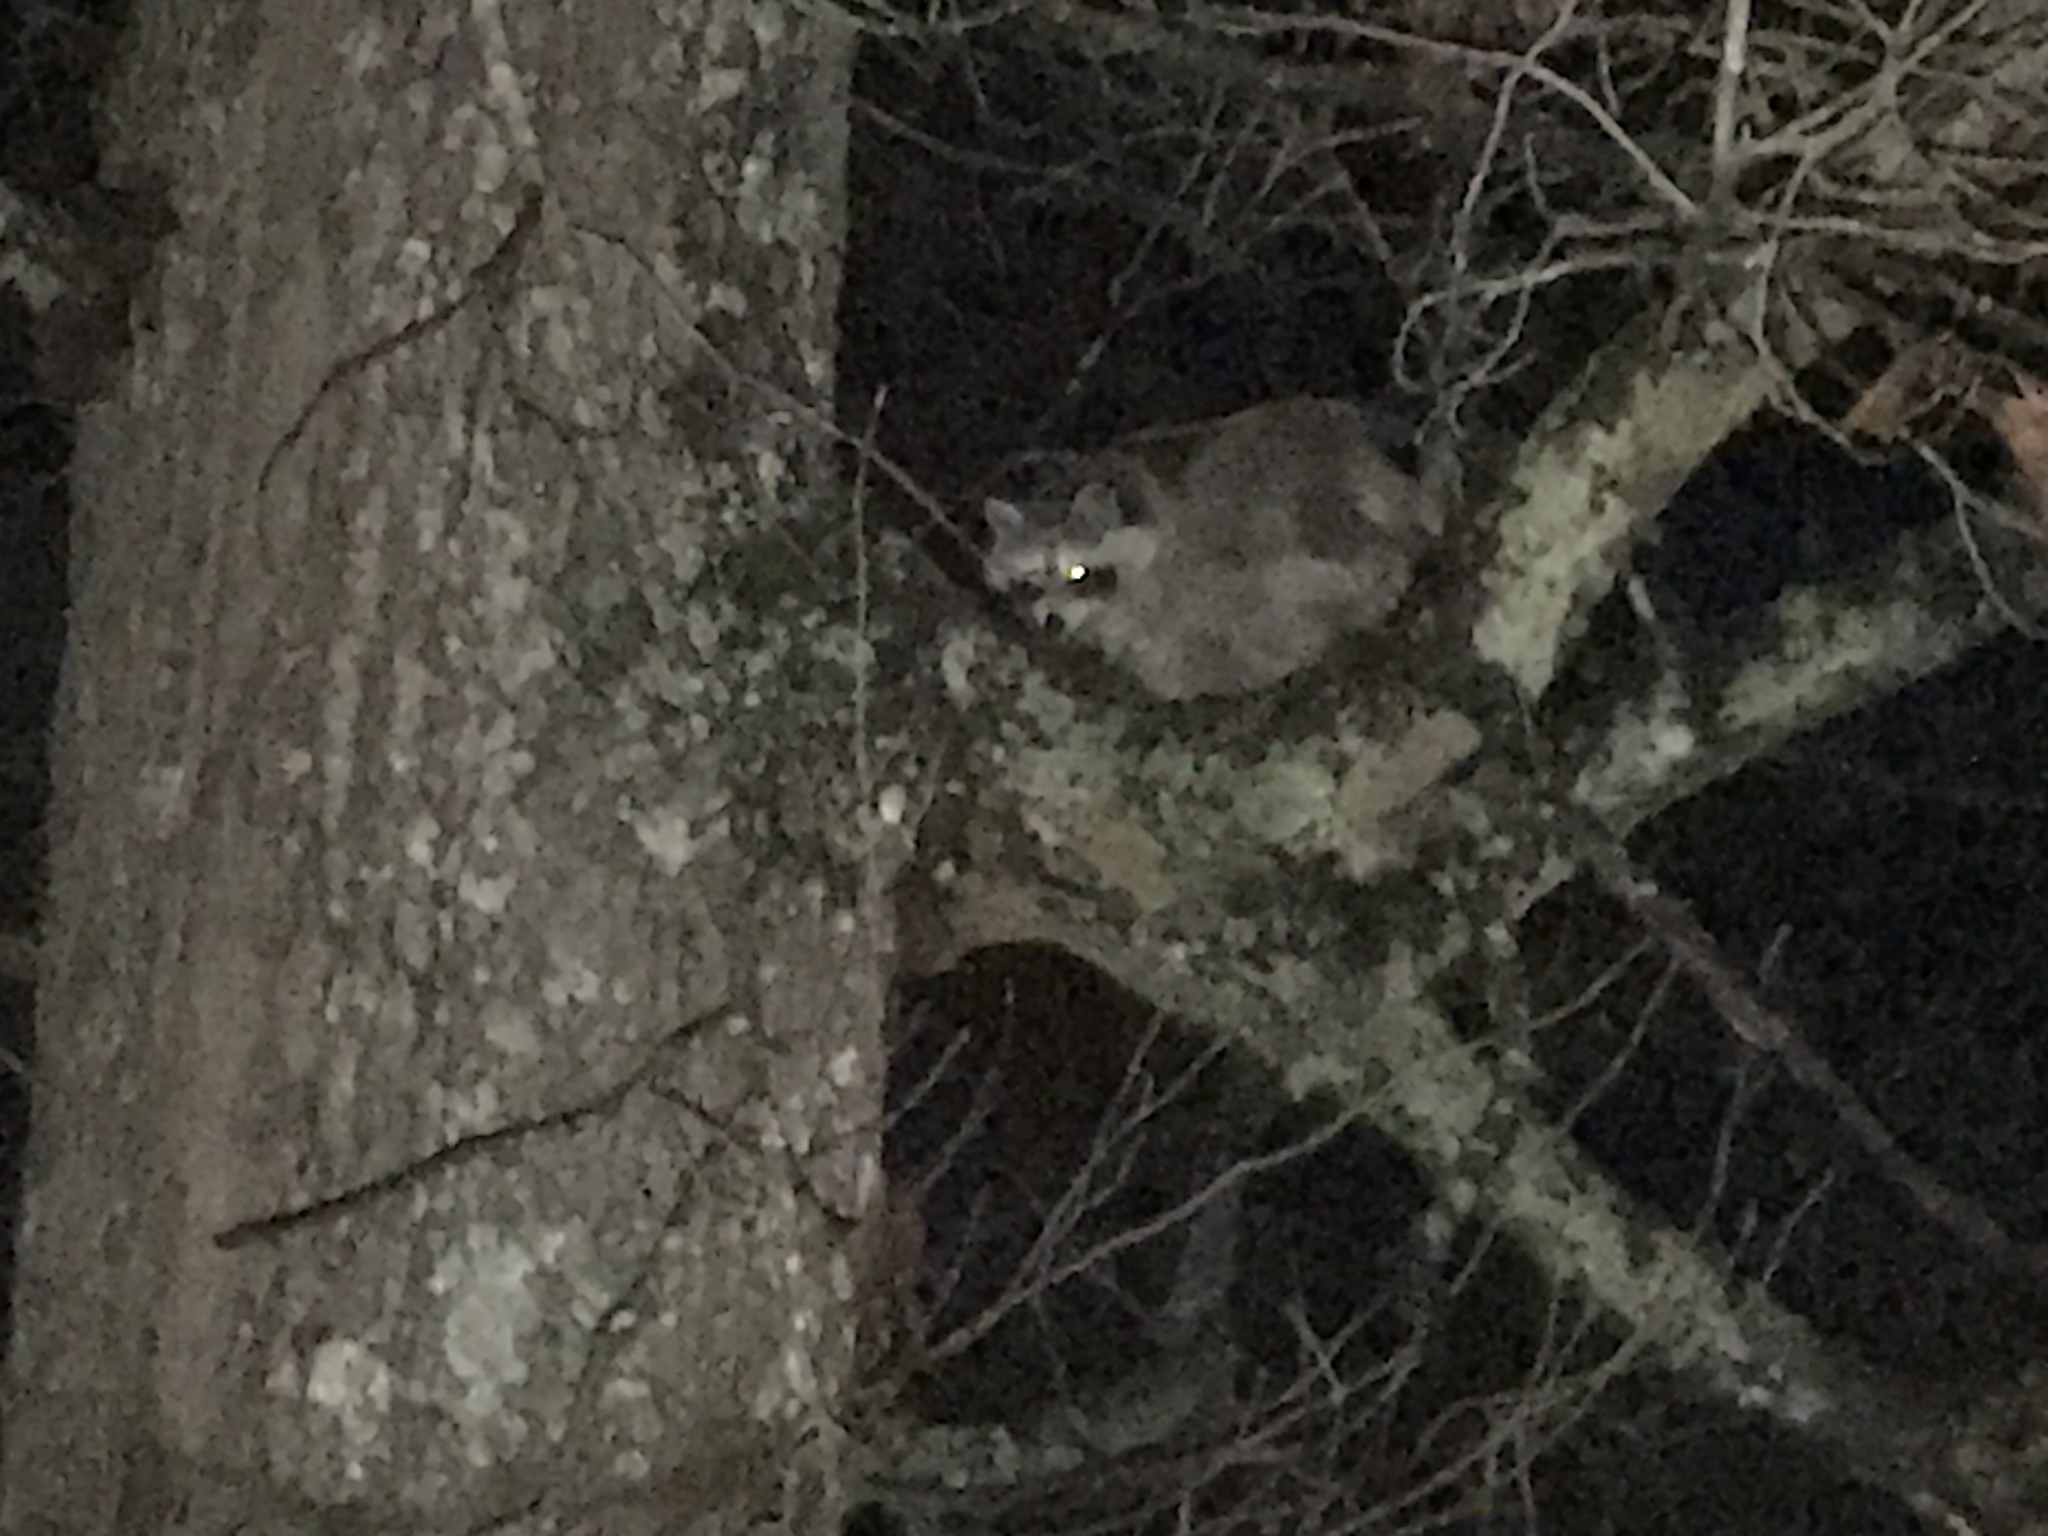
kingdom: Animalia
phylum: Chordata
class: Mammalia
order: Carnivora
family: Procyonidae
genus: Procyon
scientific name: Procyon lotor
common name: Raccoon
